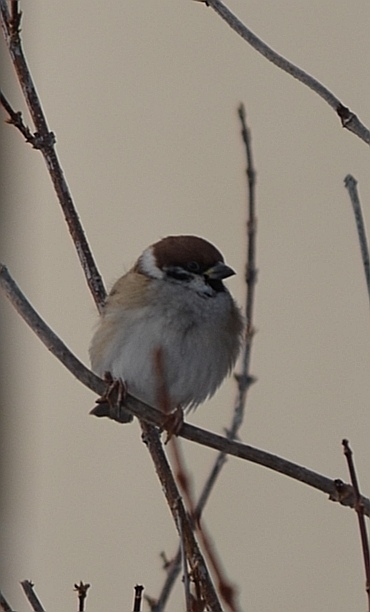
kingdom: Animalia
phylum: Chordata
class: Aves
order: Passeriformes
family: Passeridae
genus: Passer
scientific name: Passer montanus
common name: Eurasian tree sparrow
